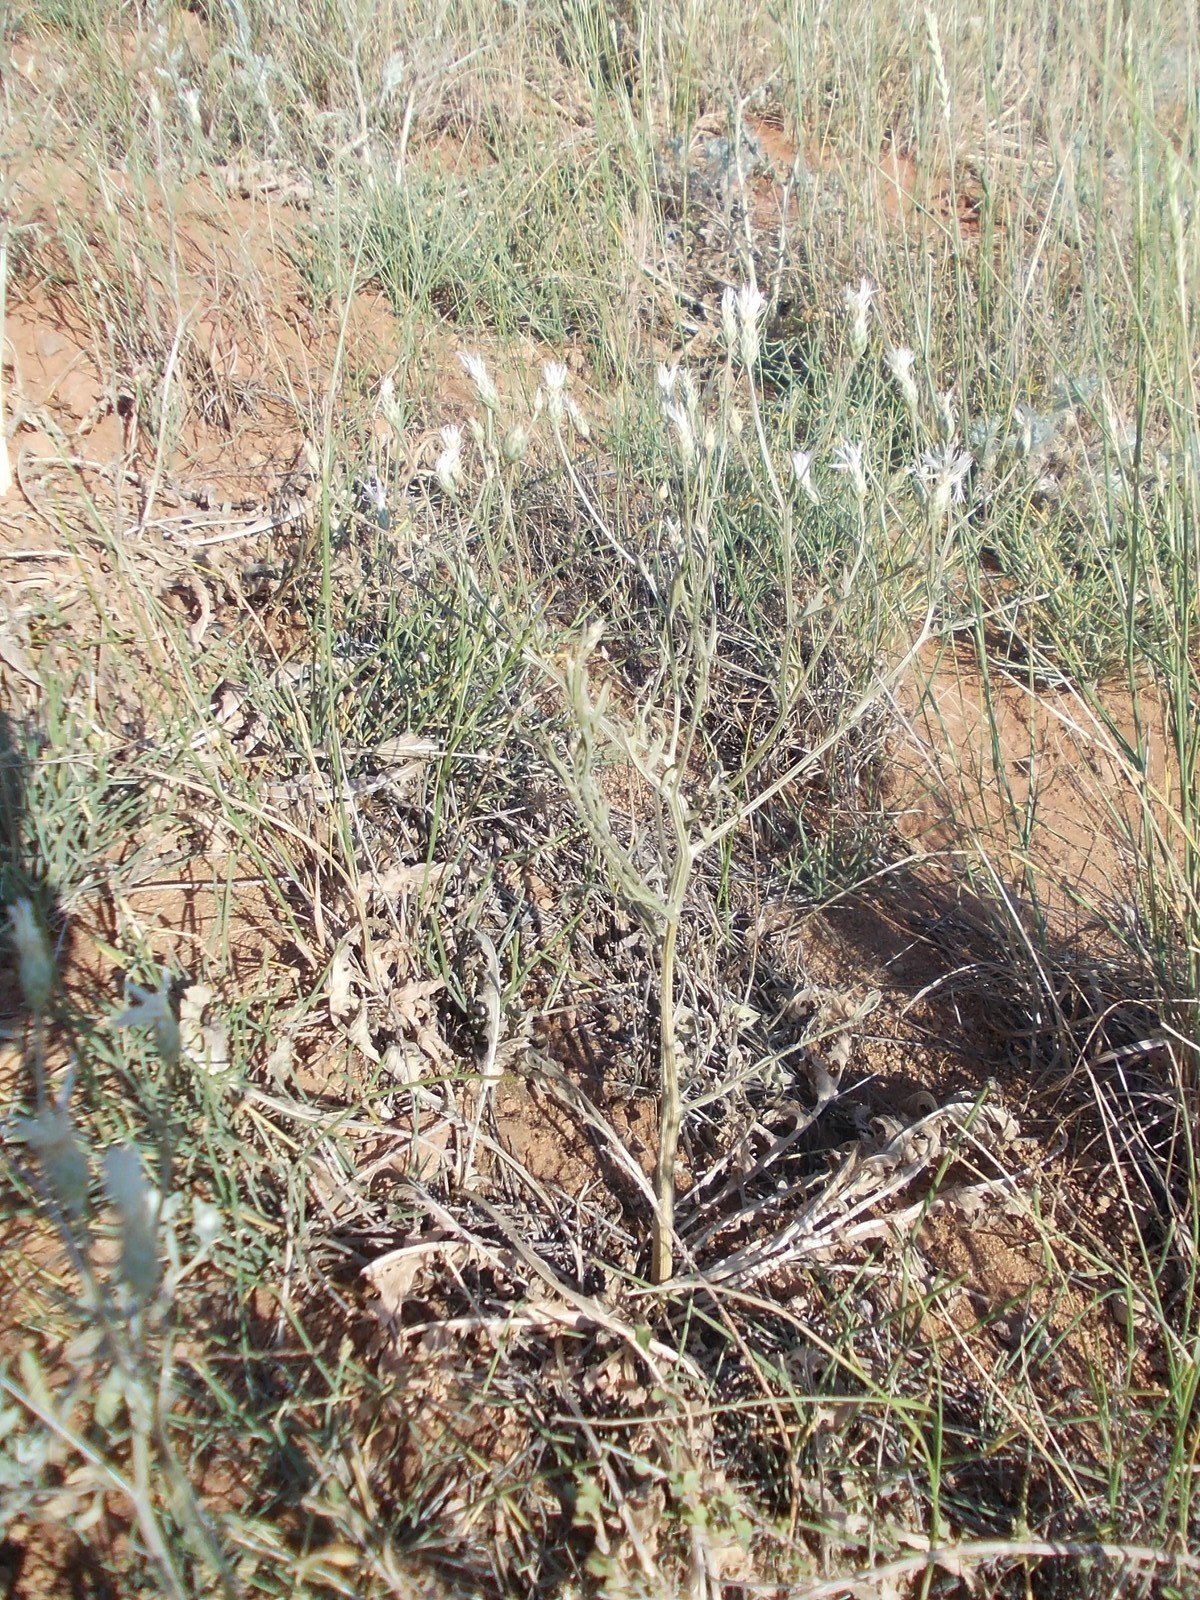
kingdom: Plantae
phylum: Tracheophyta
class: Magnoliopsida
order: Asterales
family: Asteraceae
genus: Klasea
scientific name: Klasea erucifolia
